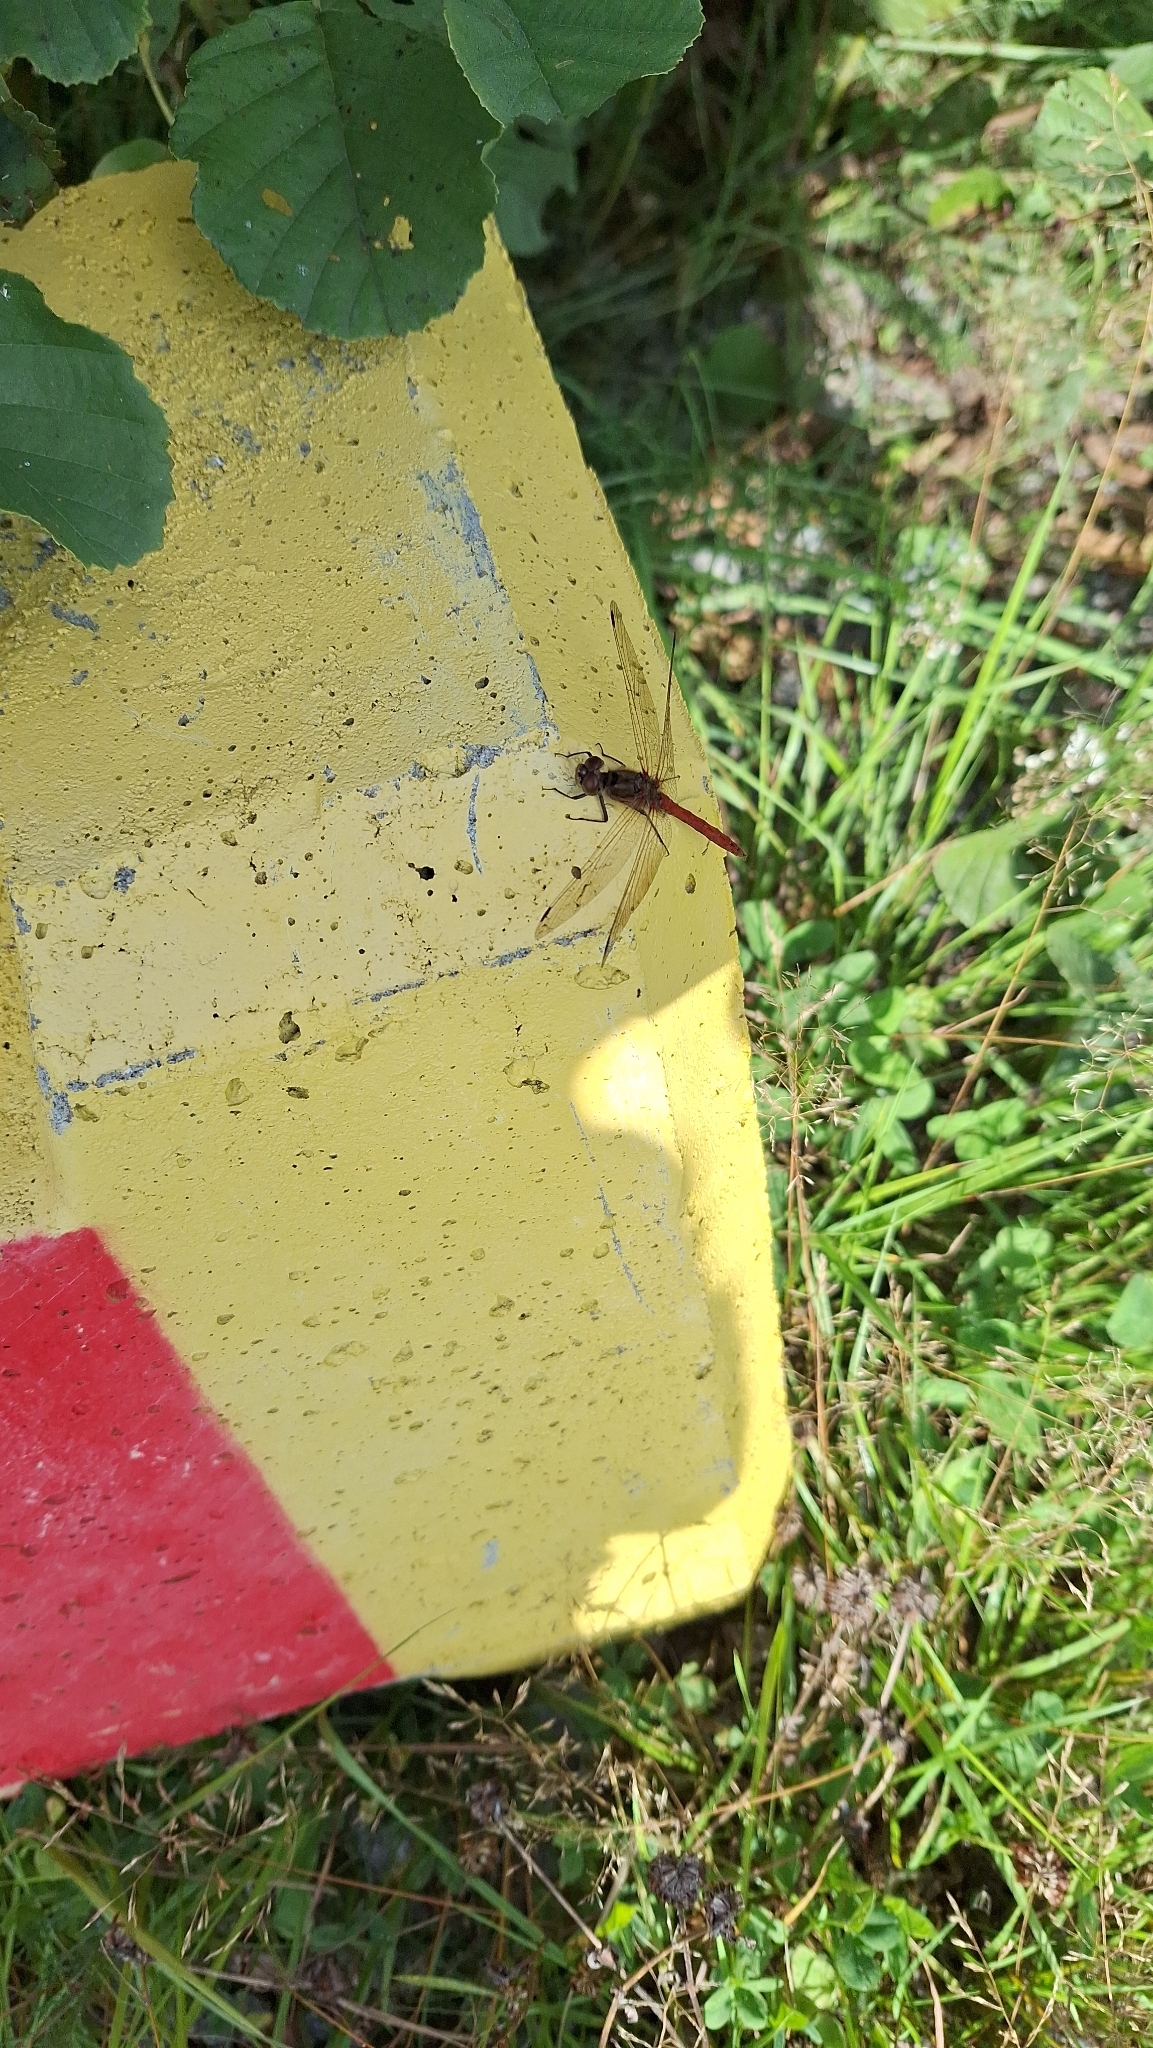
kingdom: Animalia
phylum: Arthropoda
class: Insecta
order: Odonata
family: Libellulidae
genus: Sympetrum
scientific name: Sympetrum vulgatum
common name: Vagrant darter
